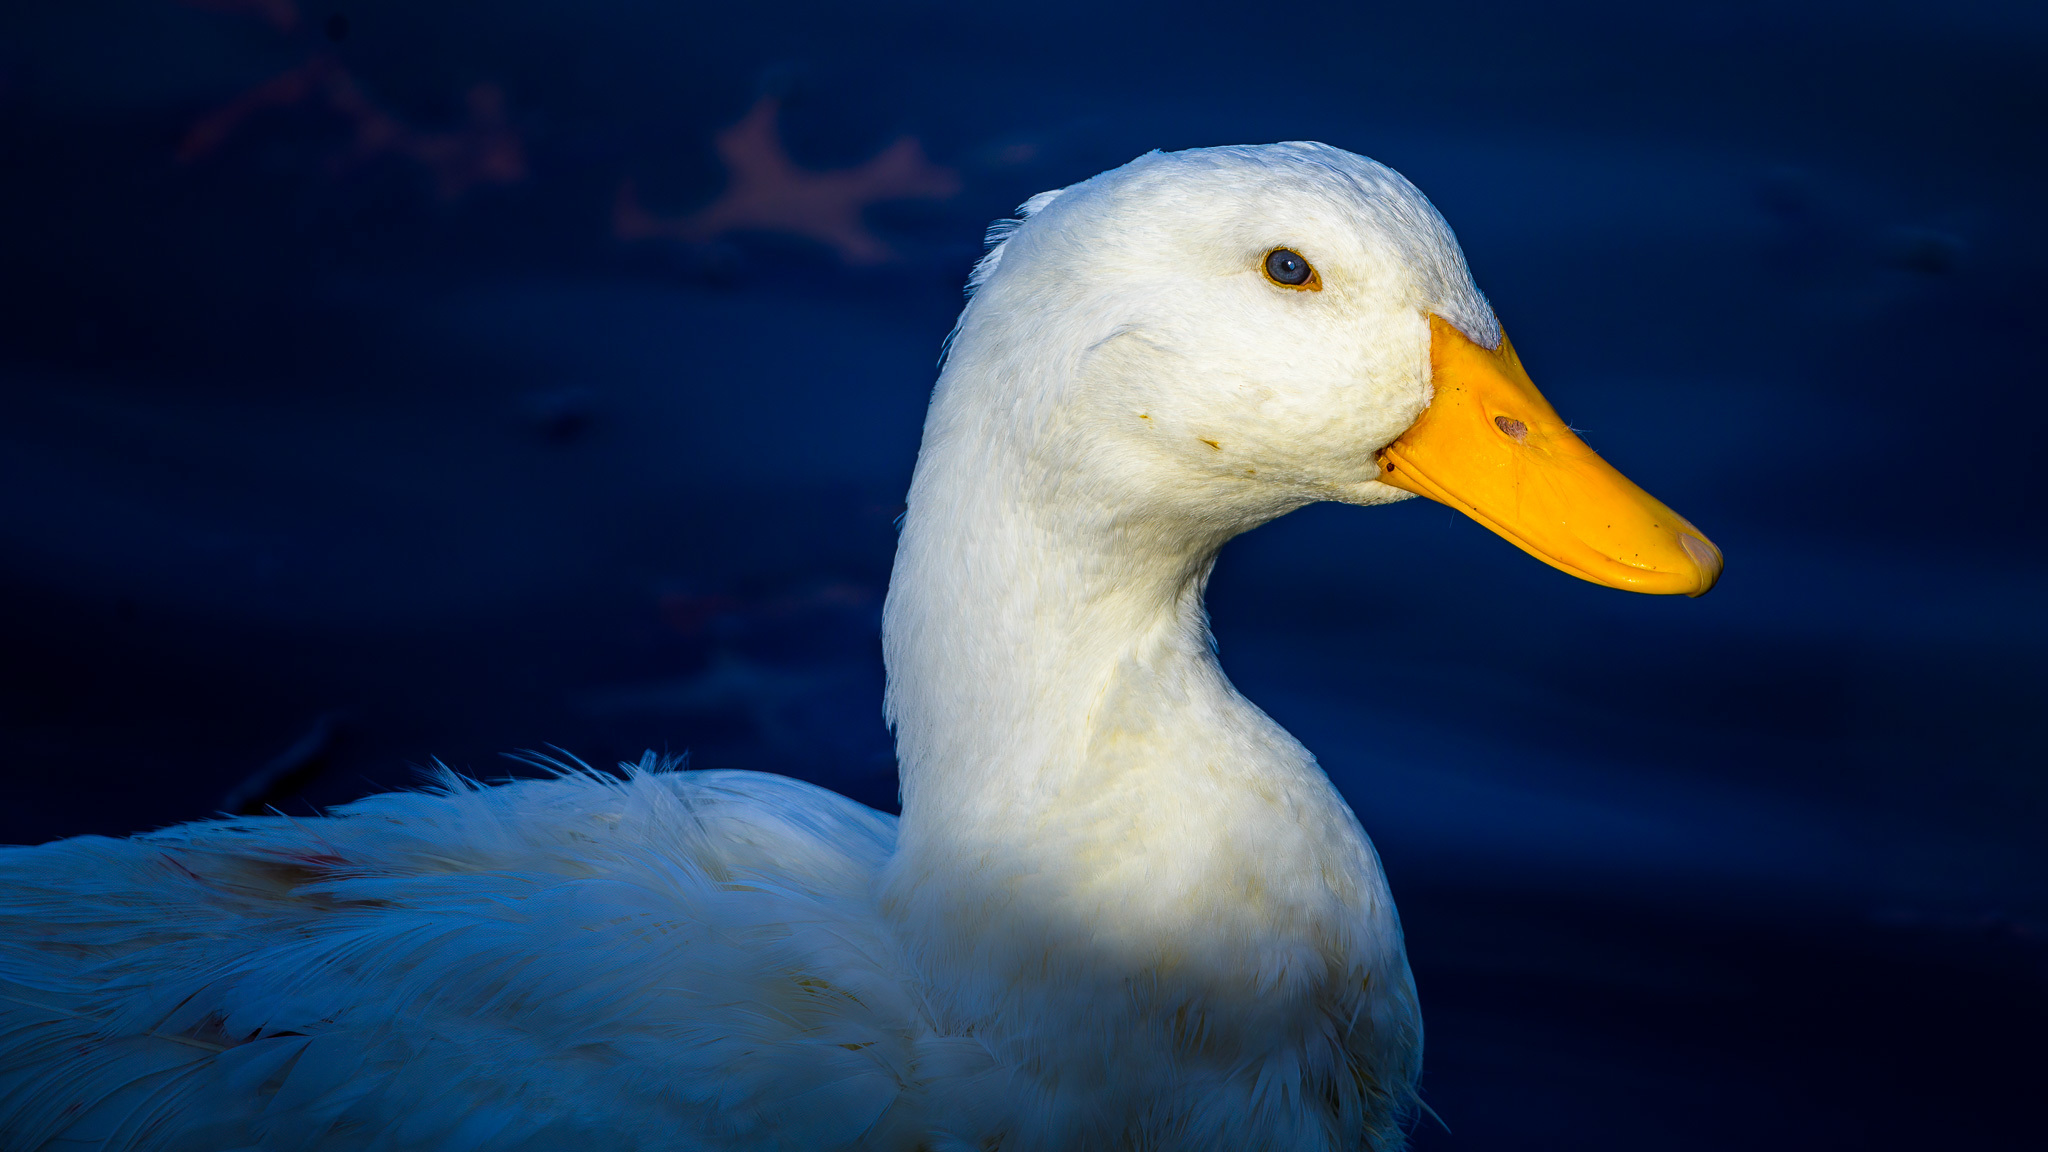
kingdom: Animalia
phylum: Chordata
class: Aves
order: Anseriformes
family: Anatidae
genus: Anas
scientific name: Anas platyrhynchos
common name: Mallard
